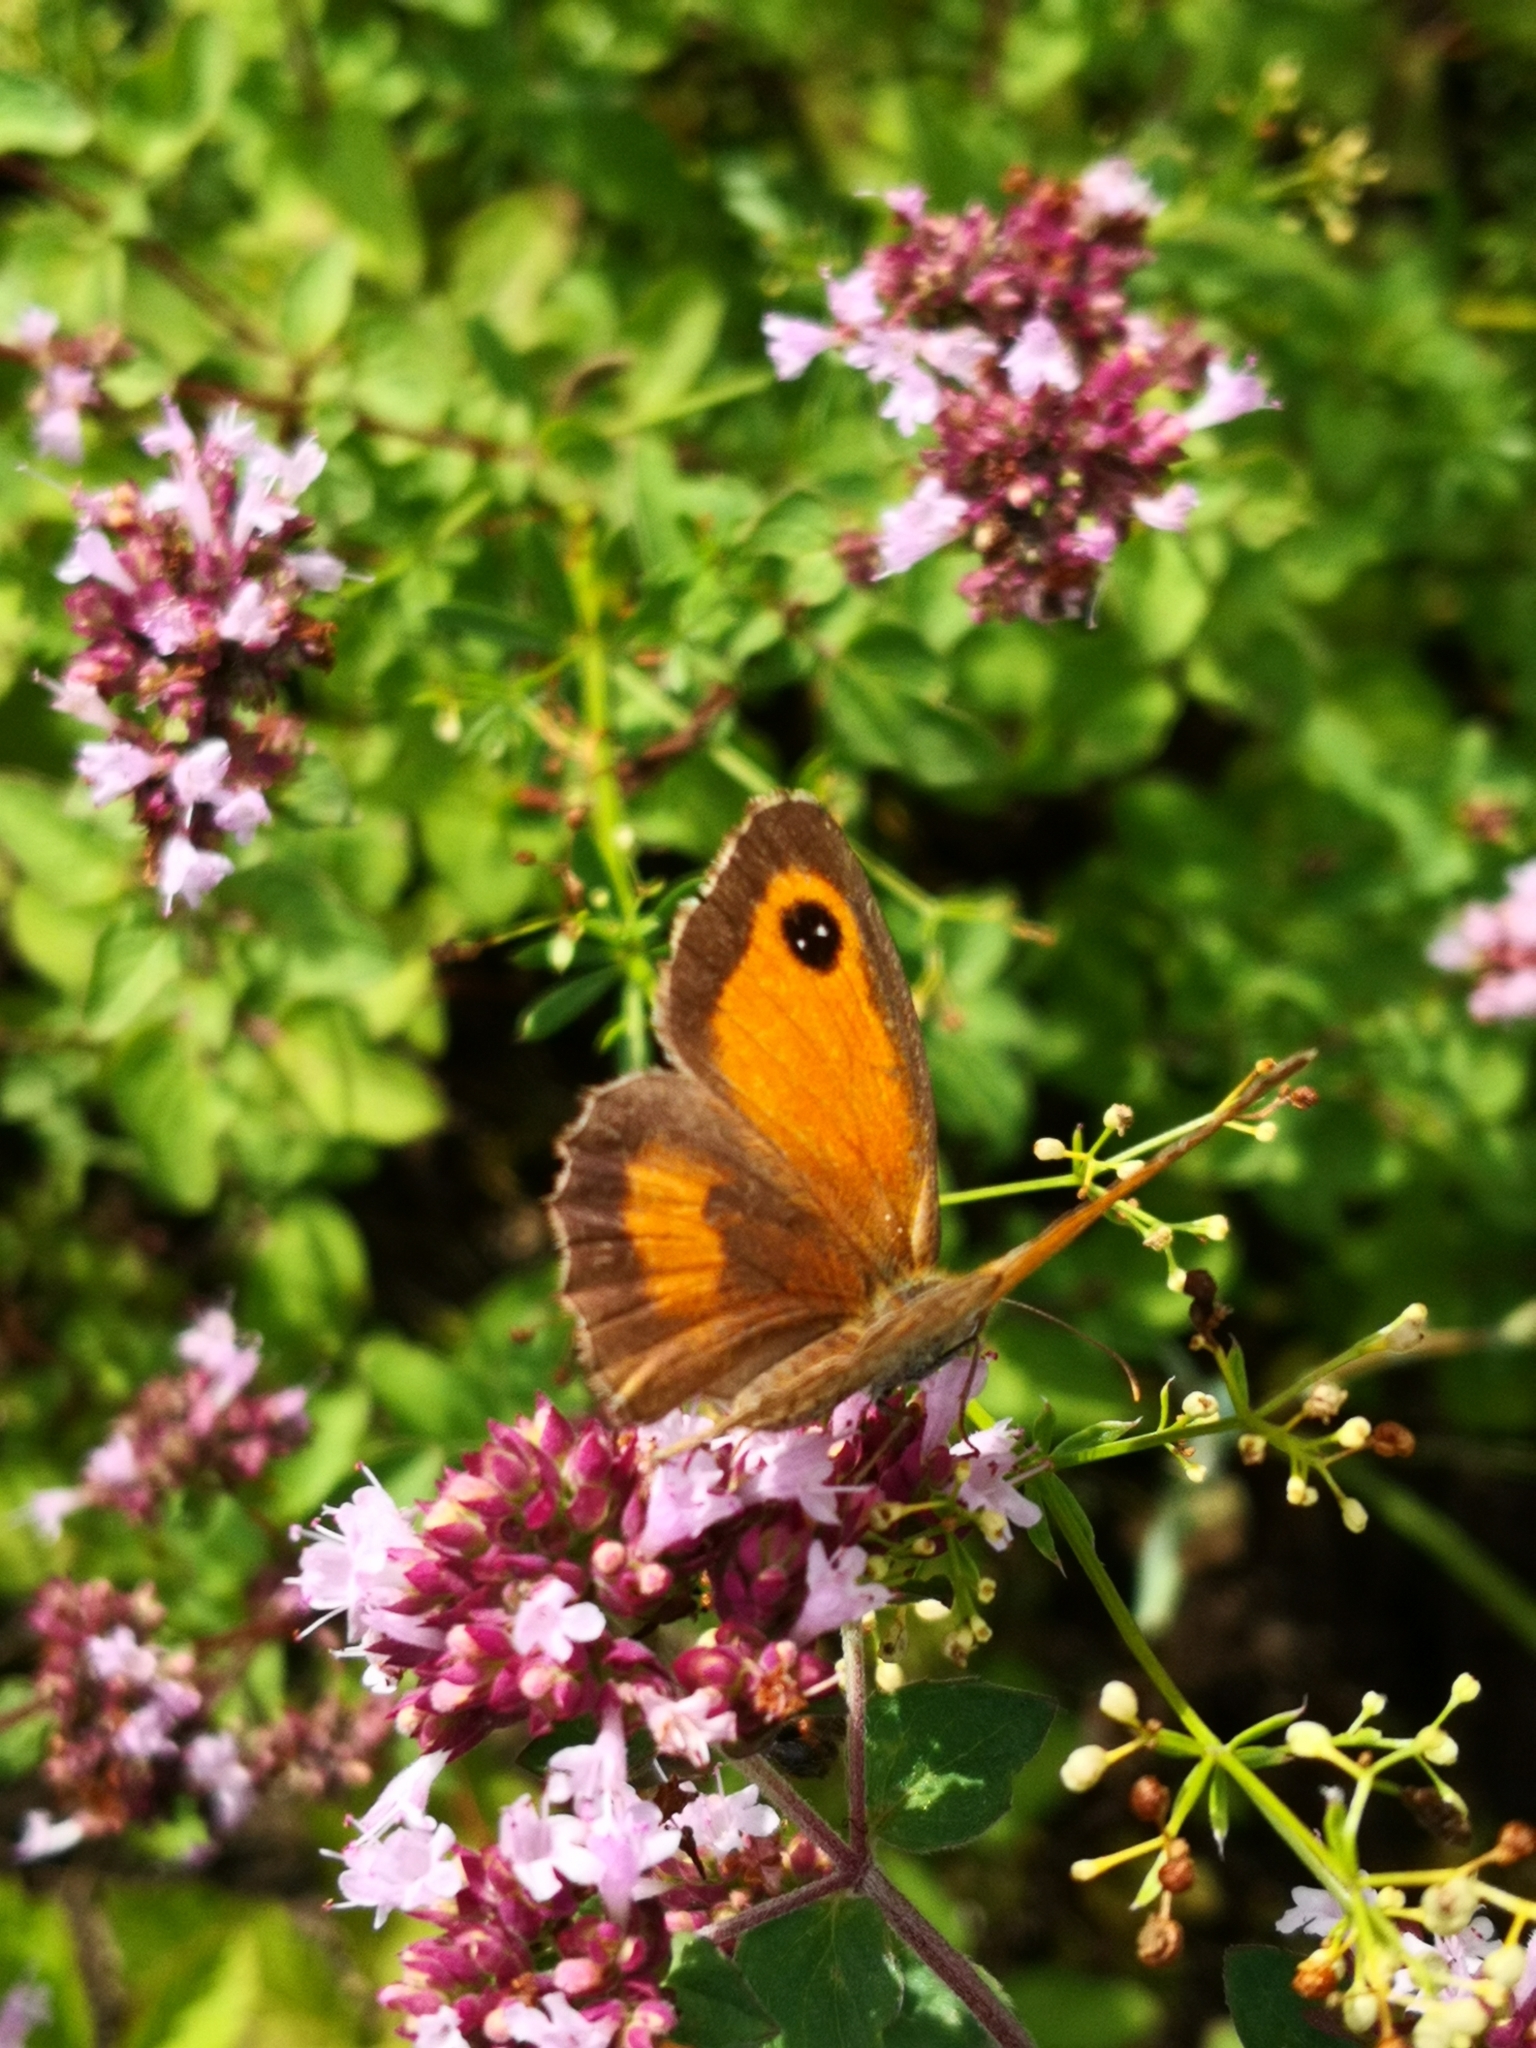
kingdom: Animalia
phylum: Arthropoda
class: Insecta
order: Lepidoptera
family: Nymphalidae
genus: Pyronia
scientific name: Pyronia tithonus
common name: Gatekeeper
